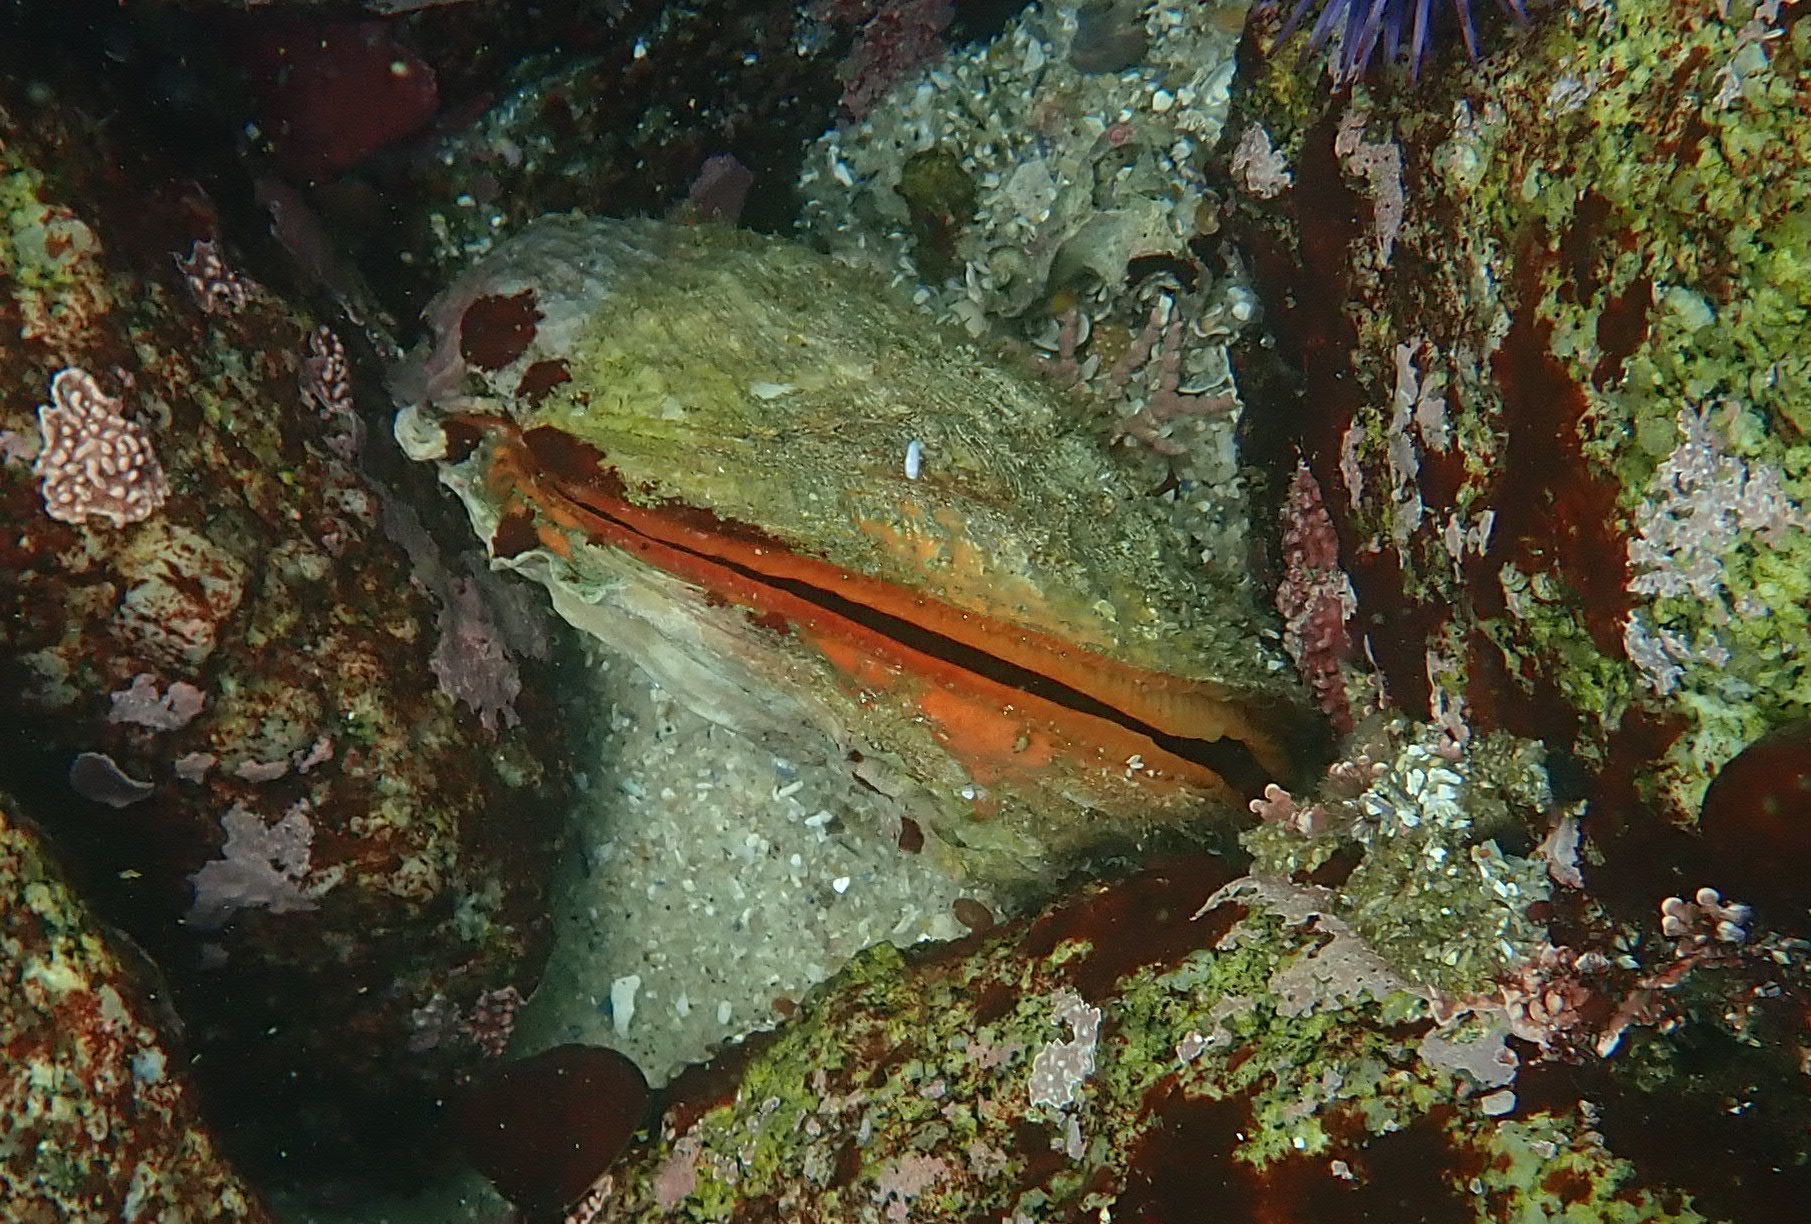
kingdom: Animalia
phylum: Mollusca
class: Bivalvia
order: Pectinida
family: Pectinidae
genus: Crassadoma
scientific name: Crassadoma gigantea
